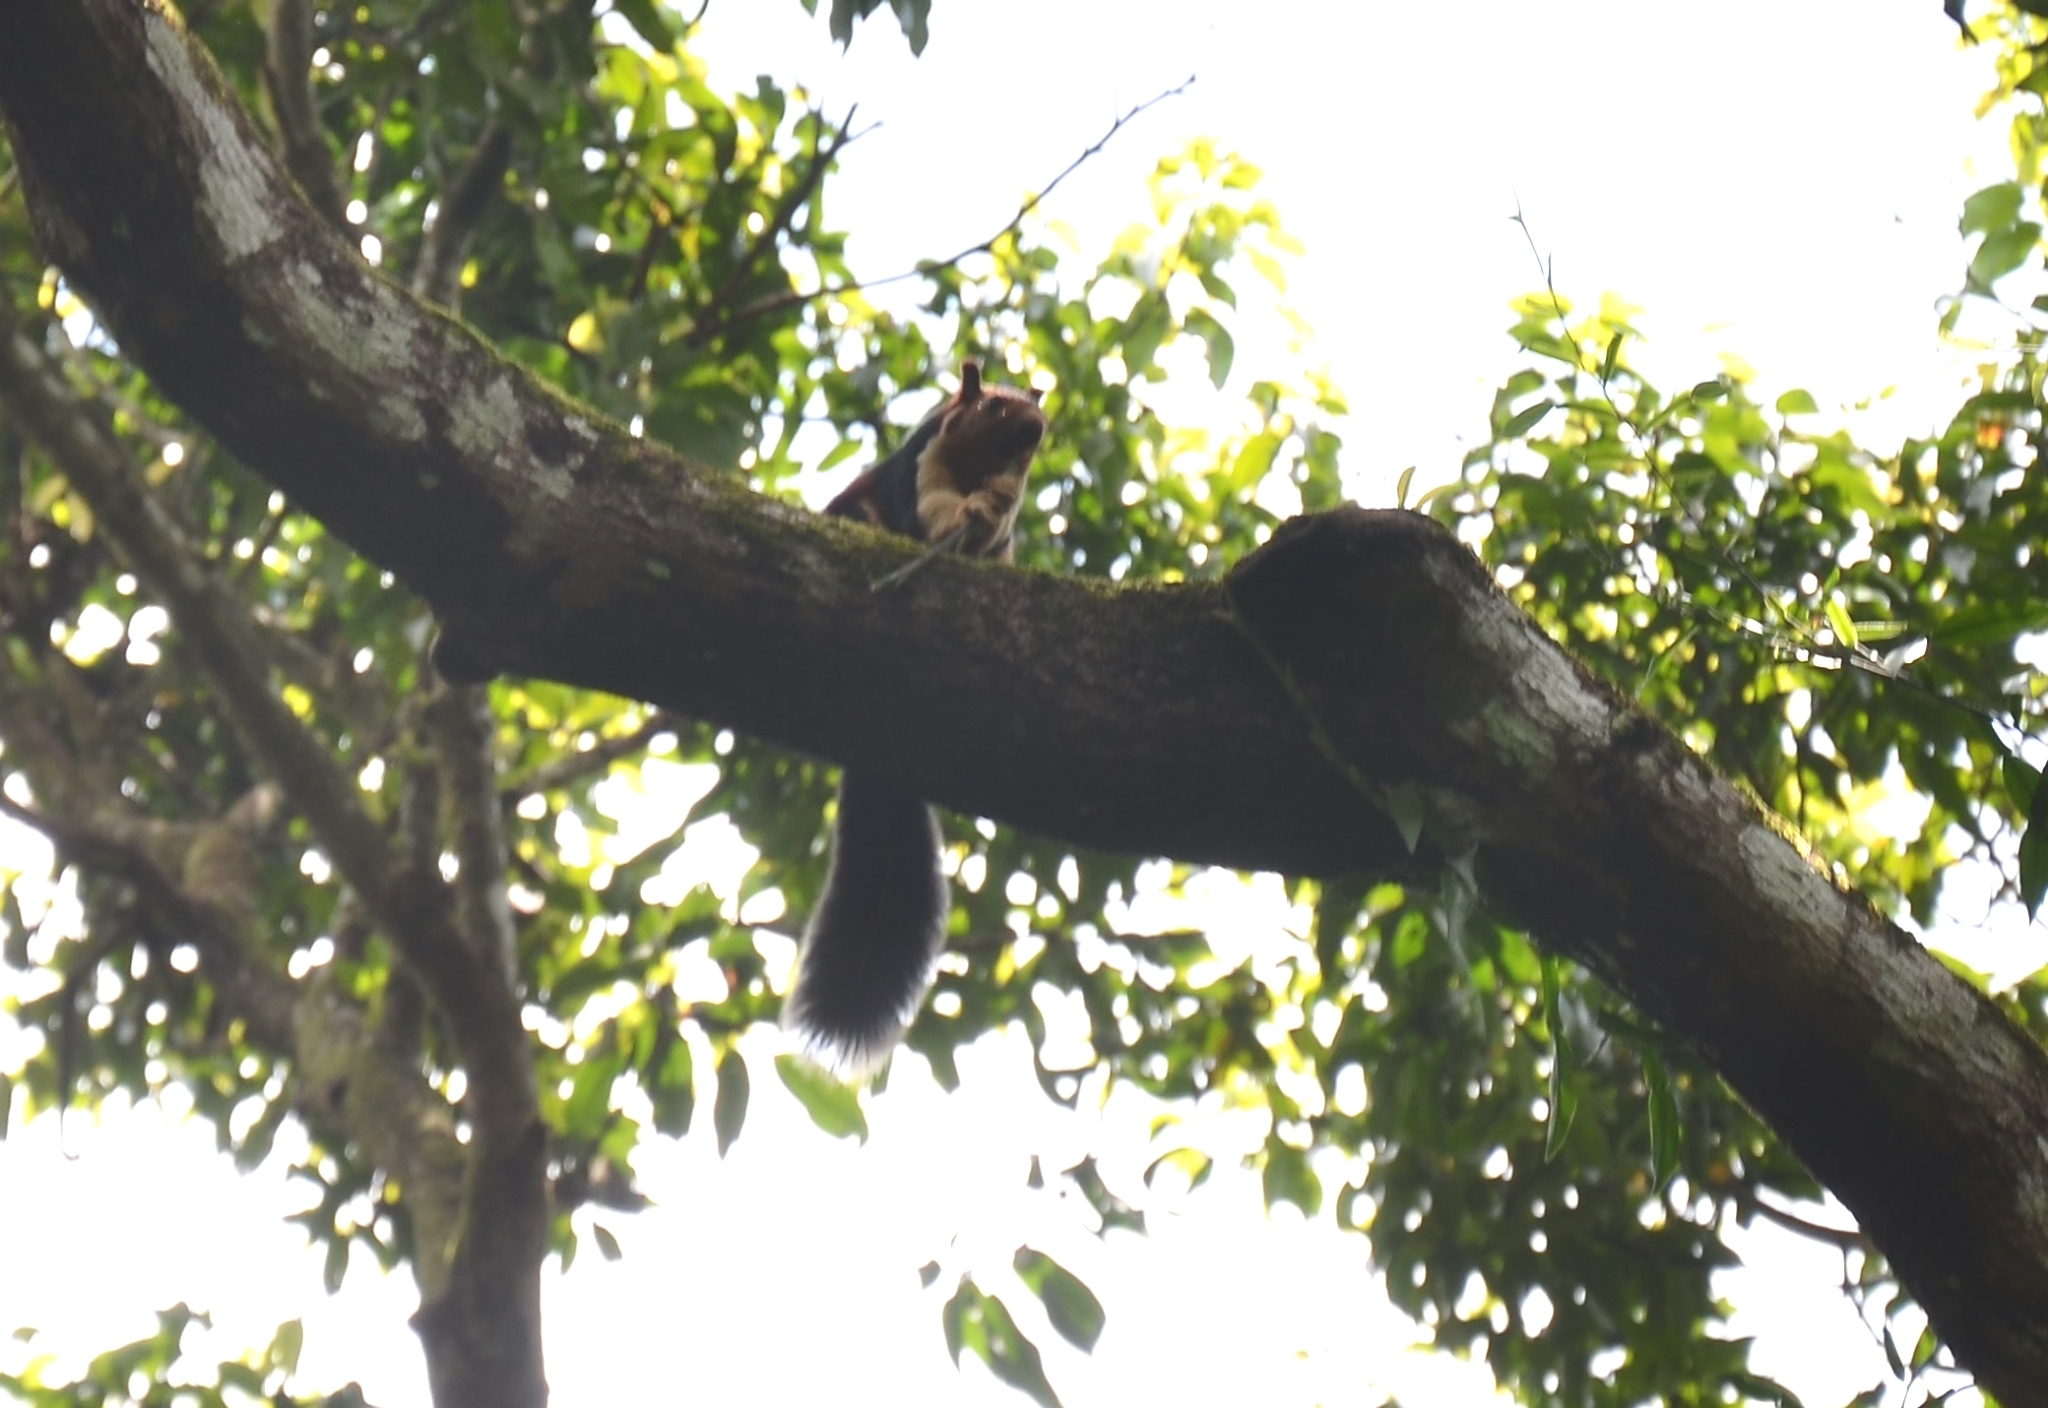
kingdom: Animalia
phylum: Chordata
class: Mammalia
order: Rodentia
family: Sciuridae
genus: Ratufa
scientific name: Ratufa indica
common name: Indian giant squirrel
